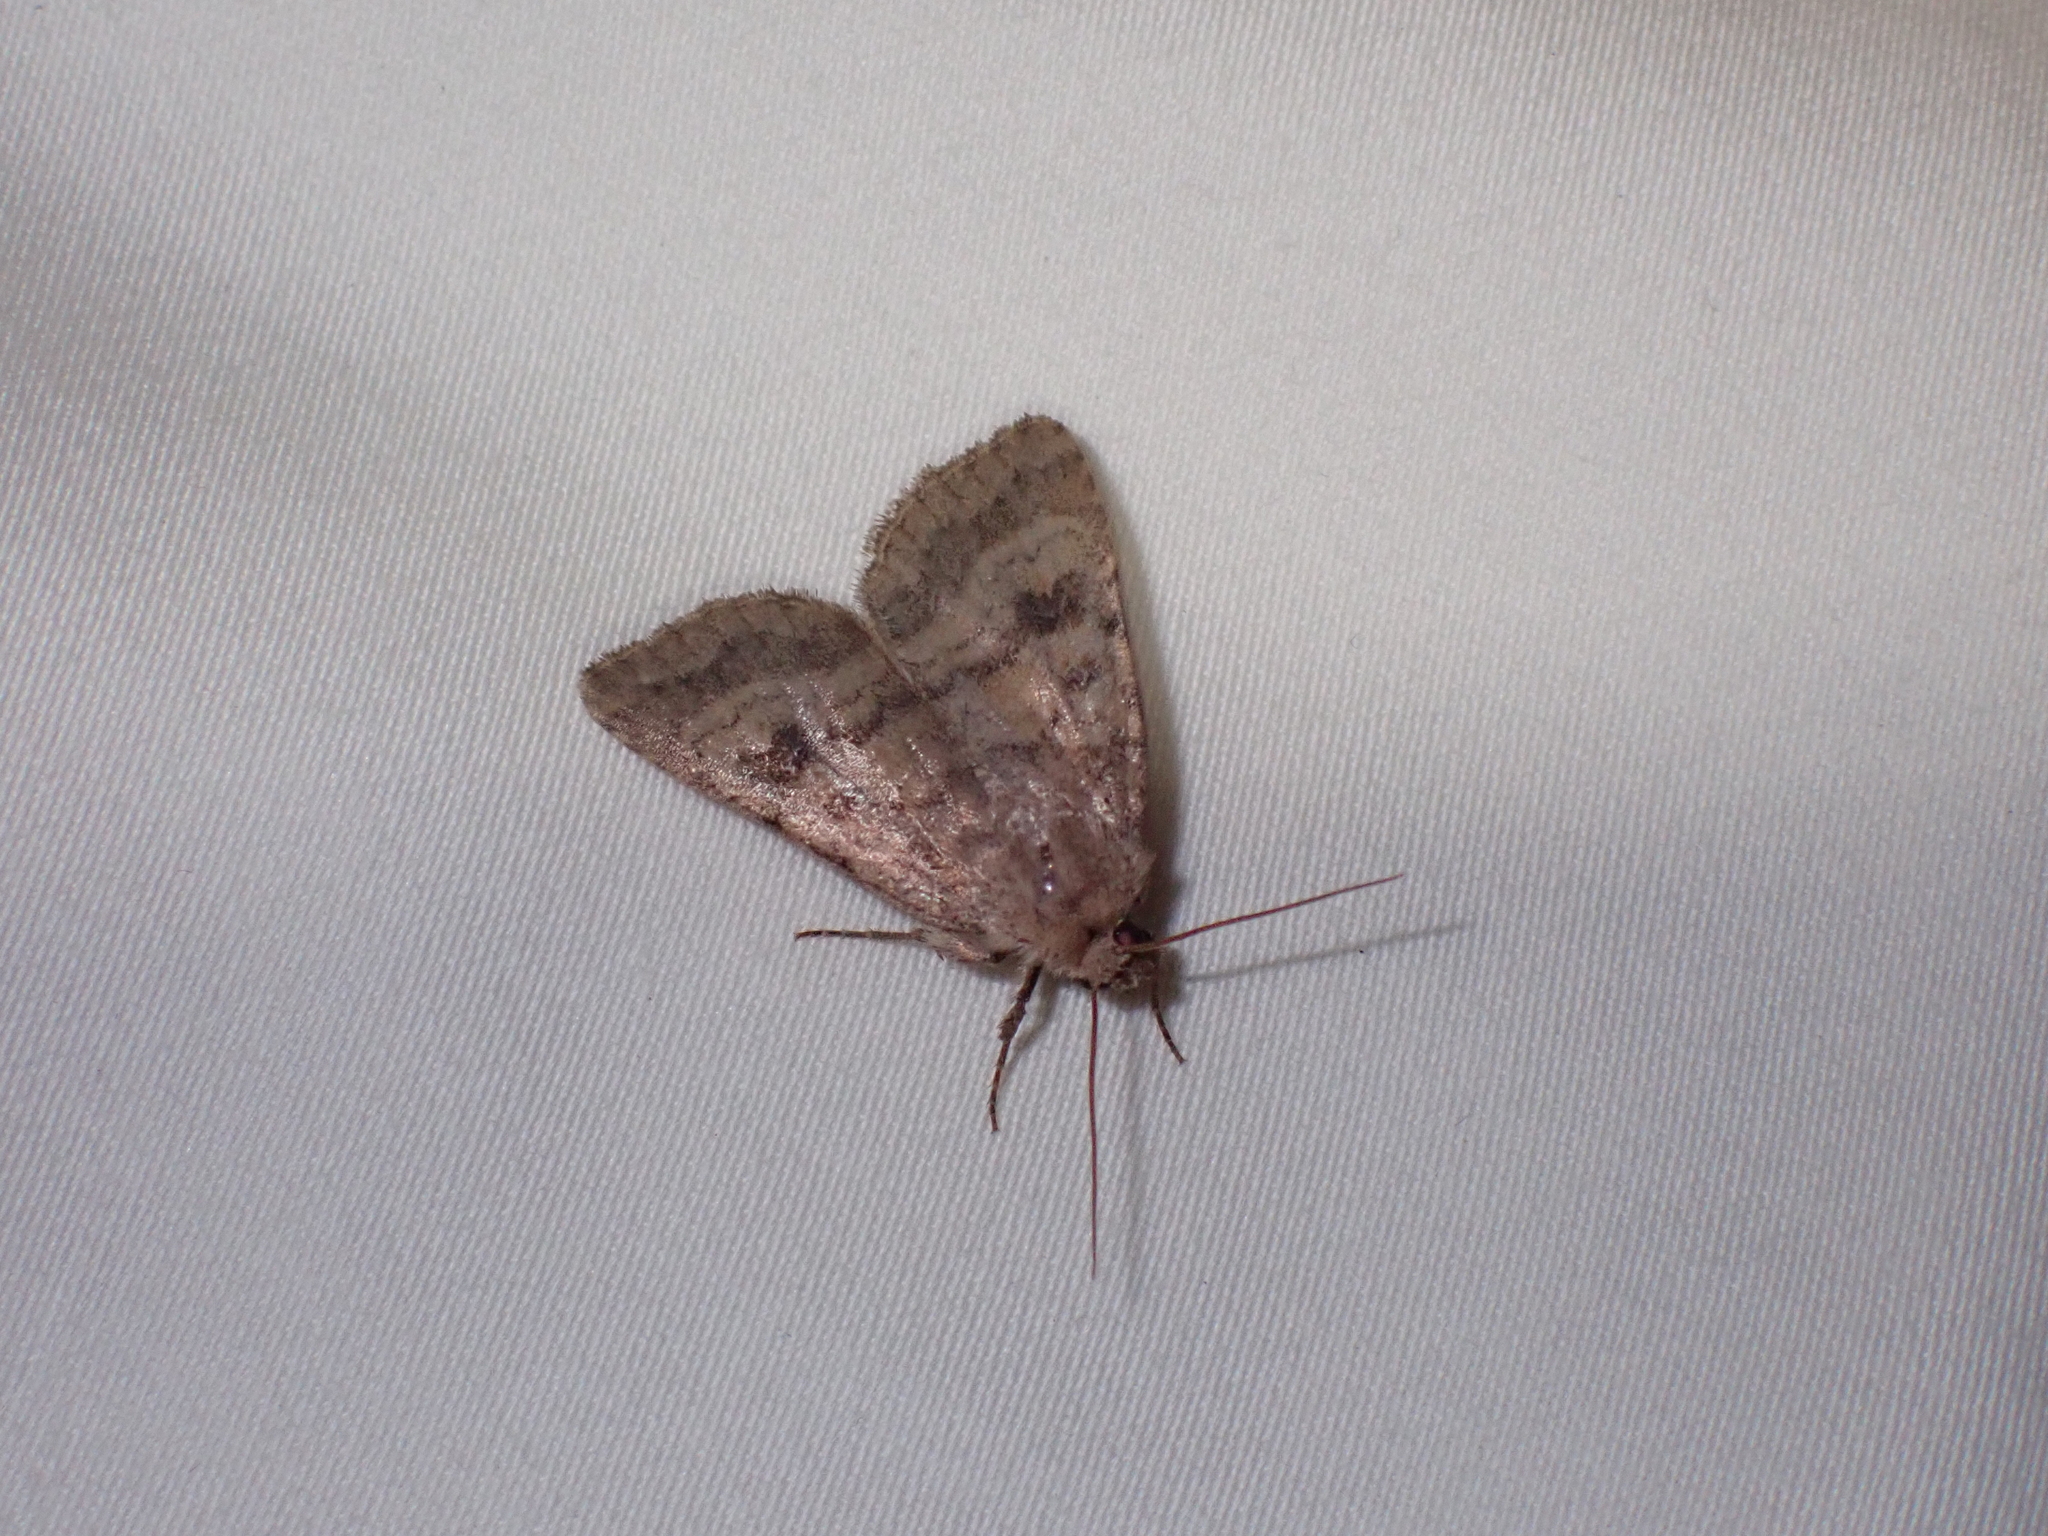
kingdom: Animalia
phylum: Arthropoda
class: Insecta
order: Lepidoptera
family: Noctuidae
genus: Caradrina
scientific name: Caradrina morpheus
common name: Mottled rustic
